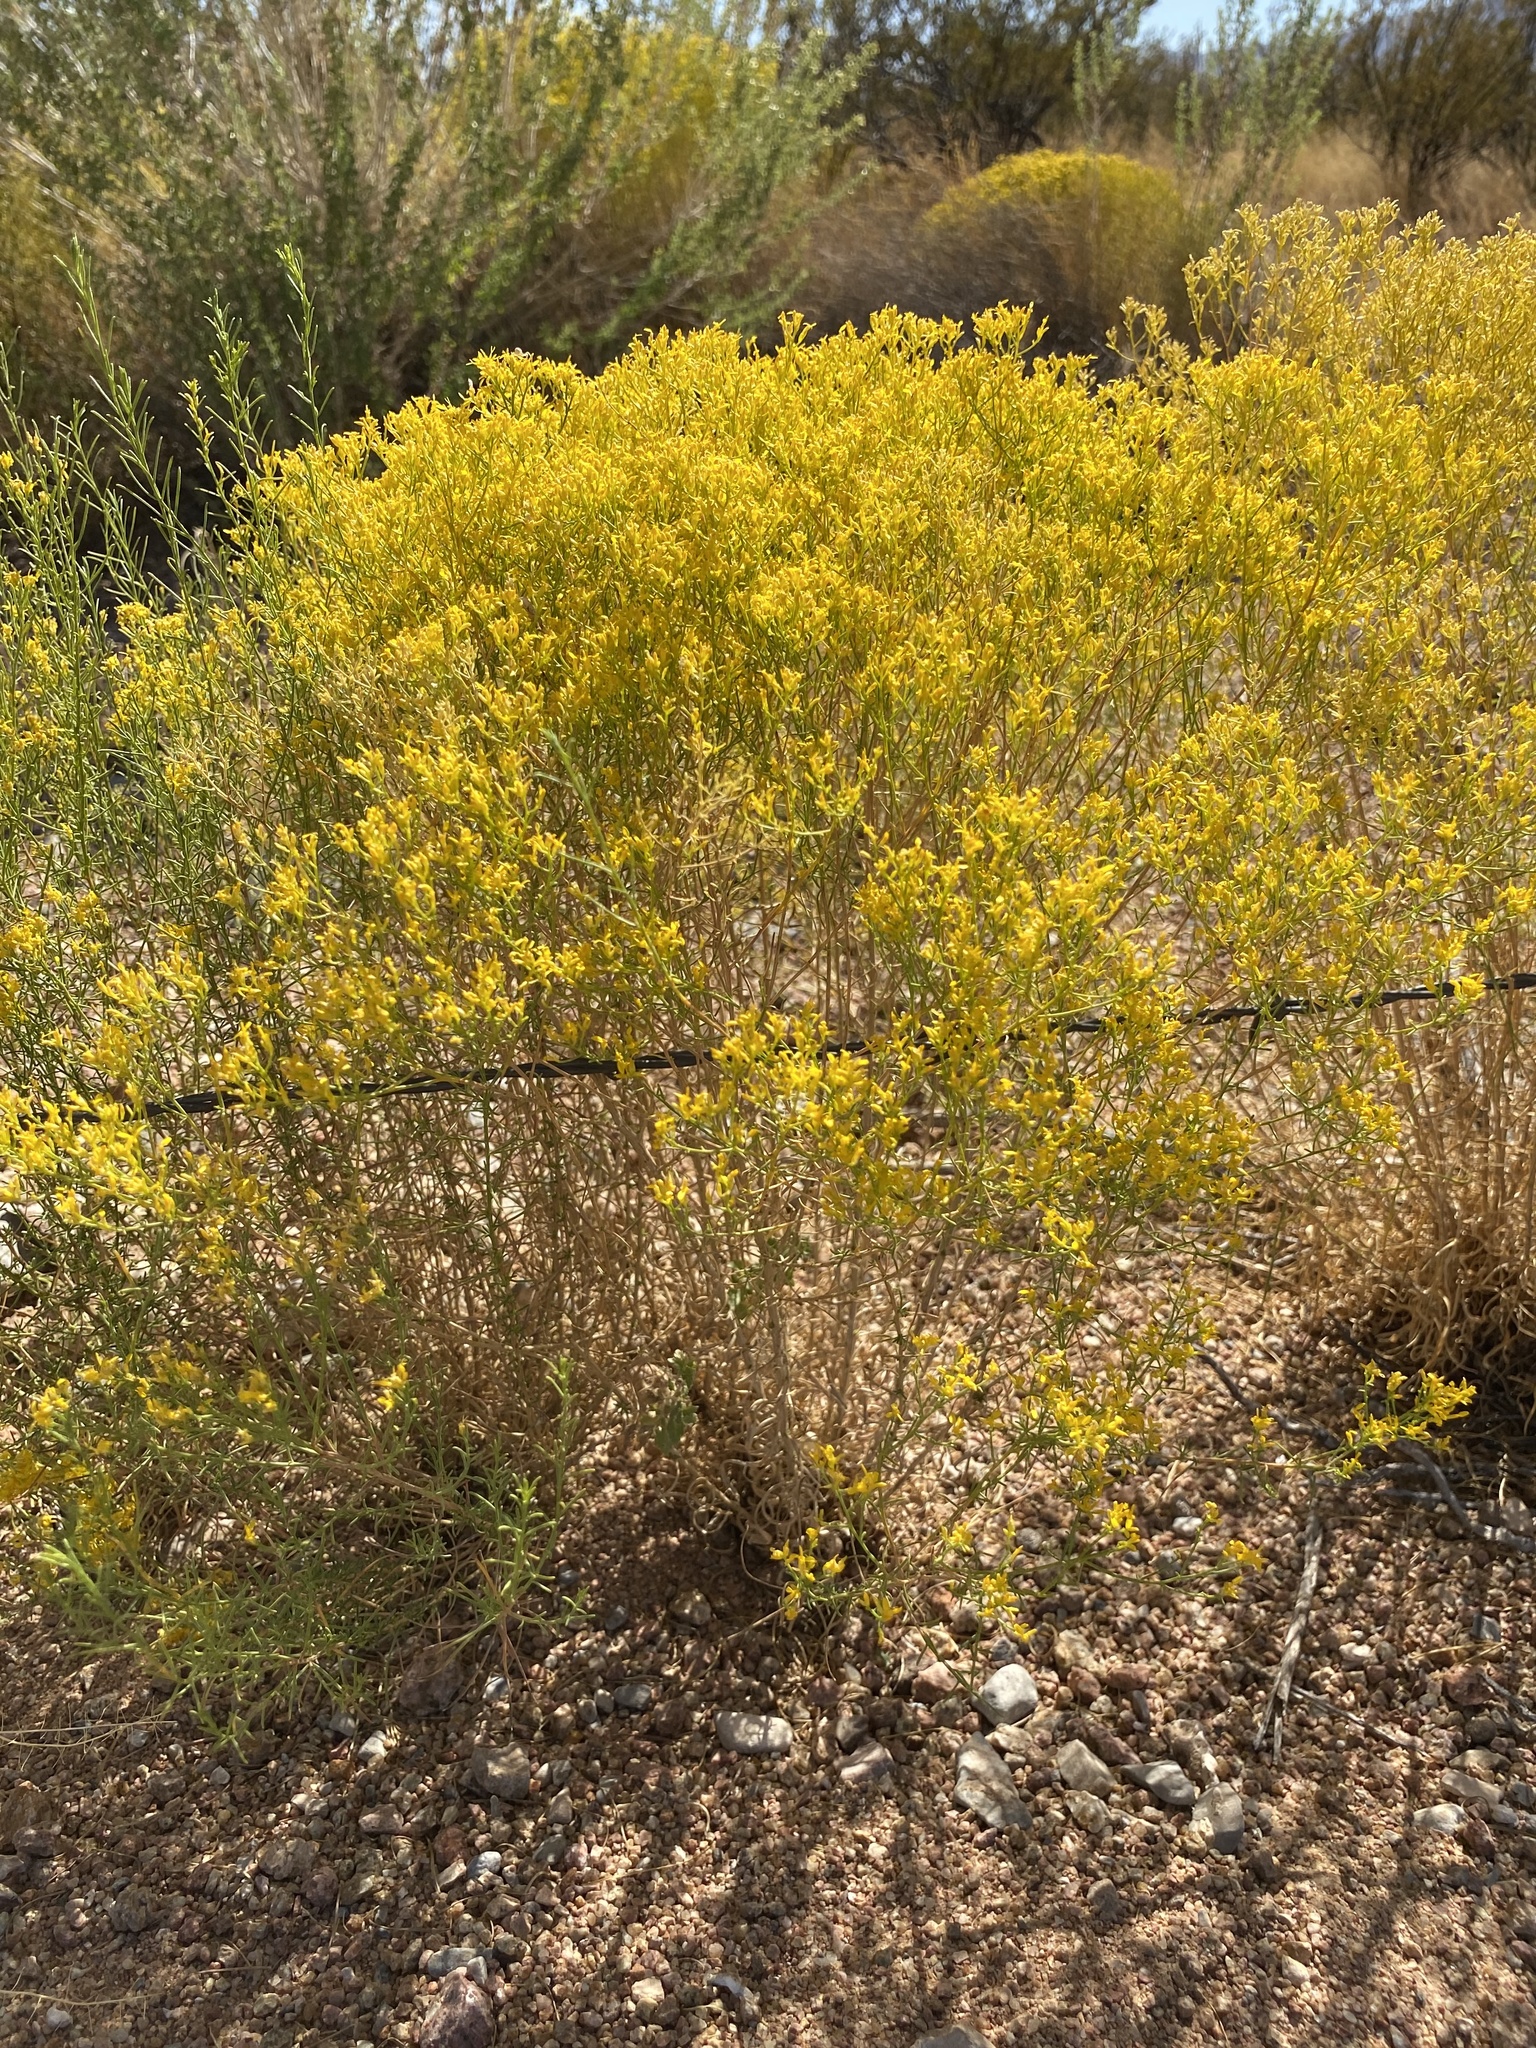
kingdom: Plantae
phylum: Tracheophyta
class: Magnoliopsida
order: Asterales
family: Asteraceae
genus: Gutierrezia
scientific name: Gutierrezia microcephala
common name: Thread snakeweed
